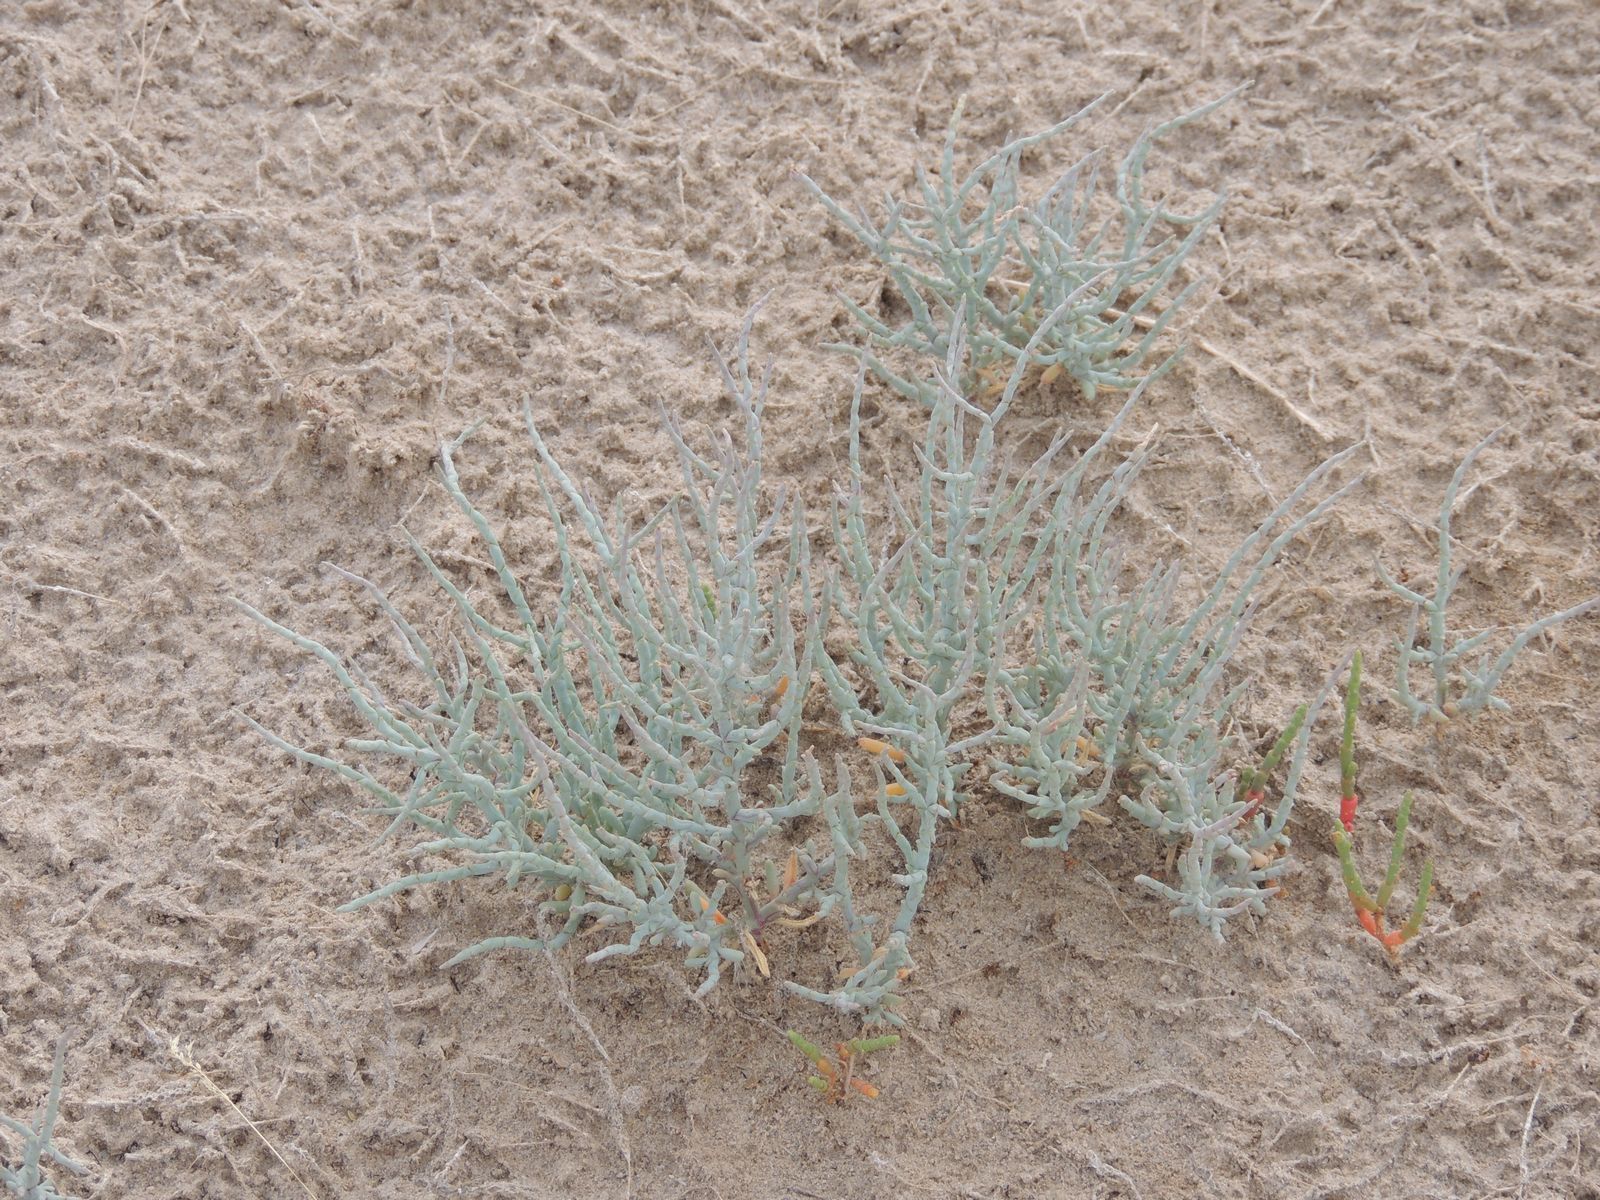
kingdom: Plantae
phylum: Tracheophyta
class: Magnoliopsida
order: Caryophyllales
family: Amaranthaceae
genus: Ofaiston
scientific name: Ofaiston monandrum
